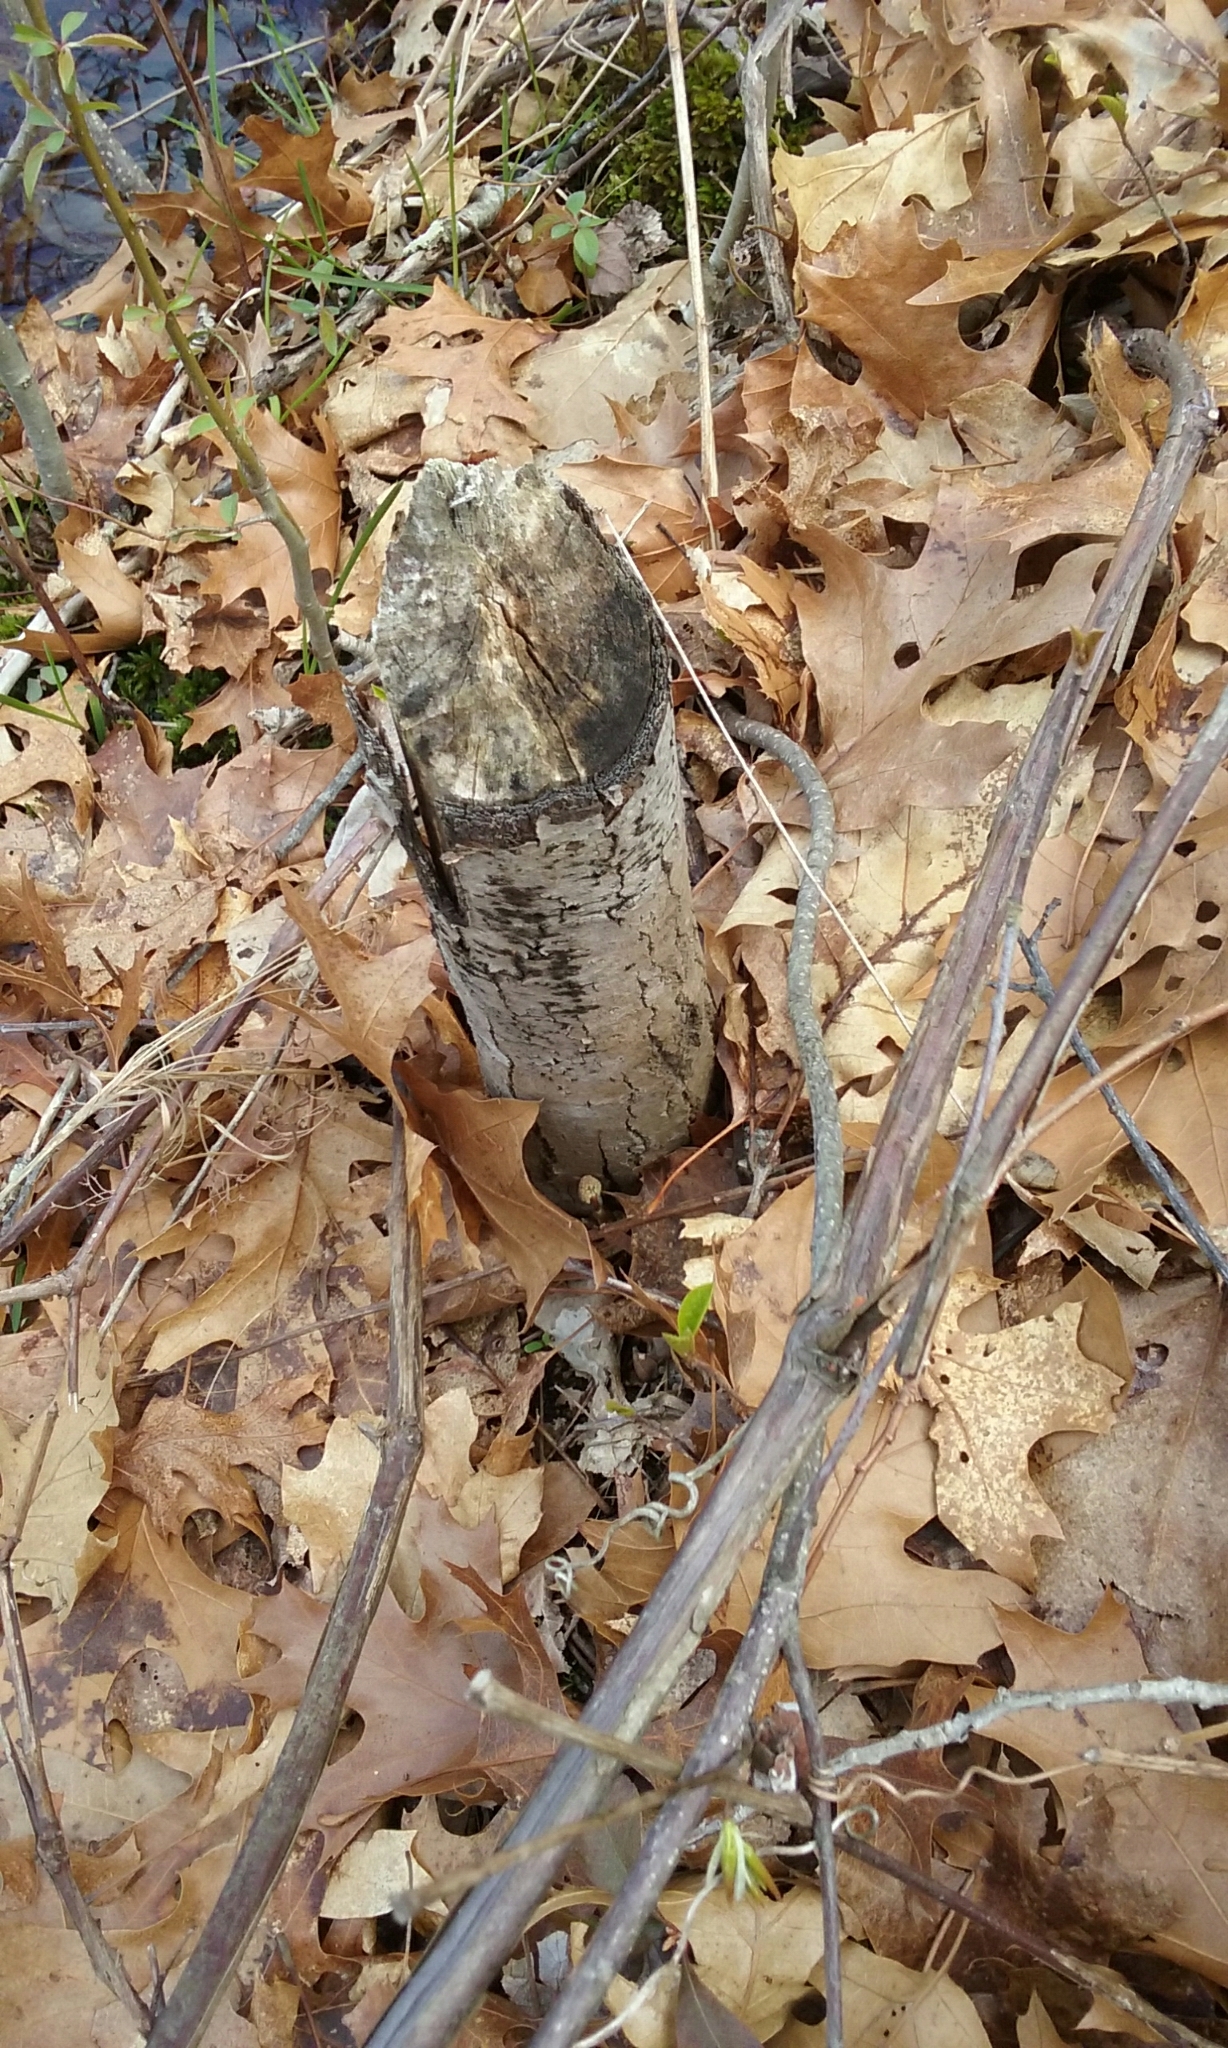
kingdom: Animalia
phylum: Chordata
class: Mammalia
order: Rodentia
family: Castoridae
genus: Castor
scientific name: Castor canadensis
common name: American beaver
